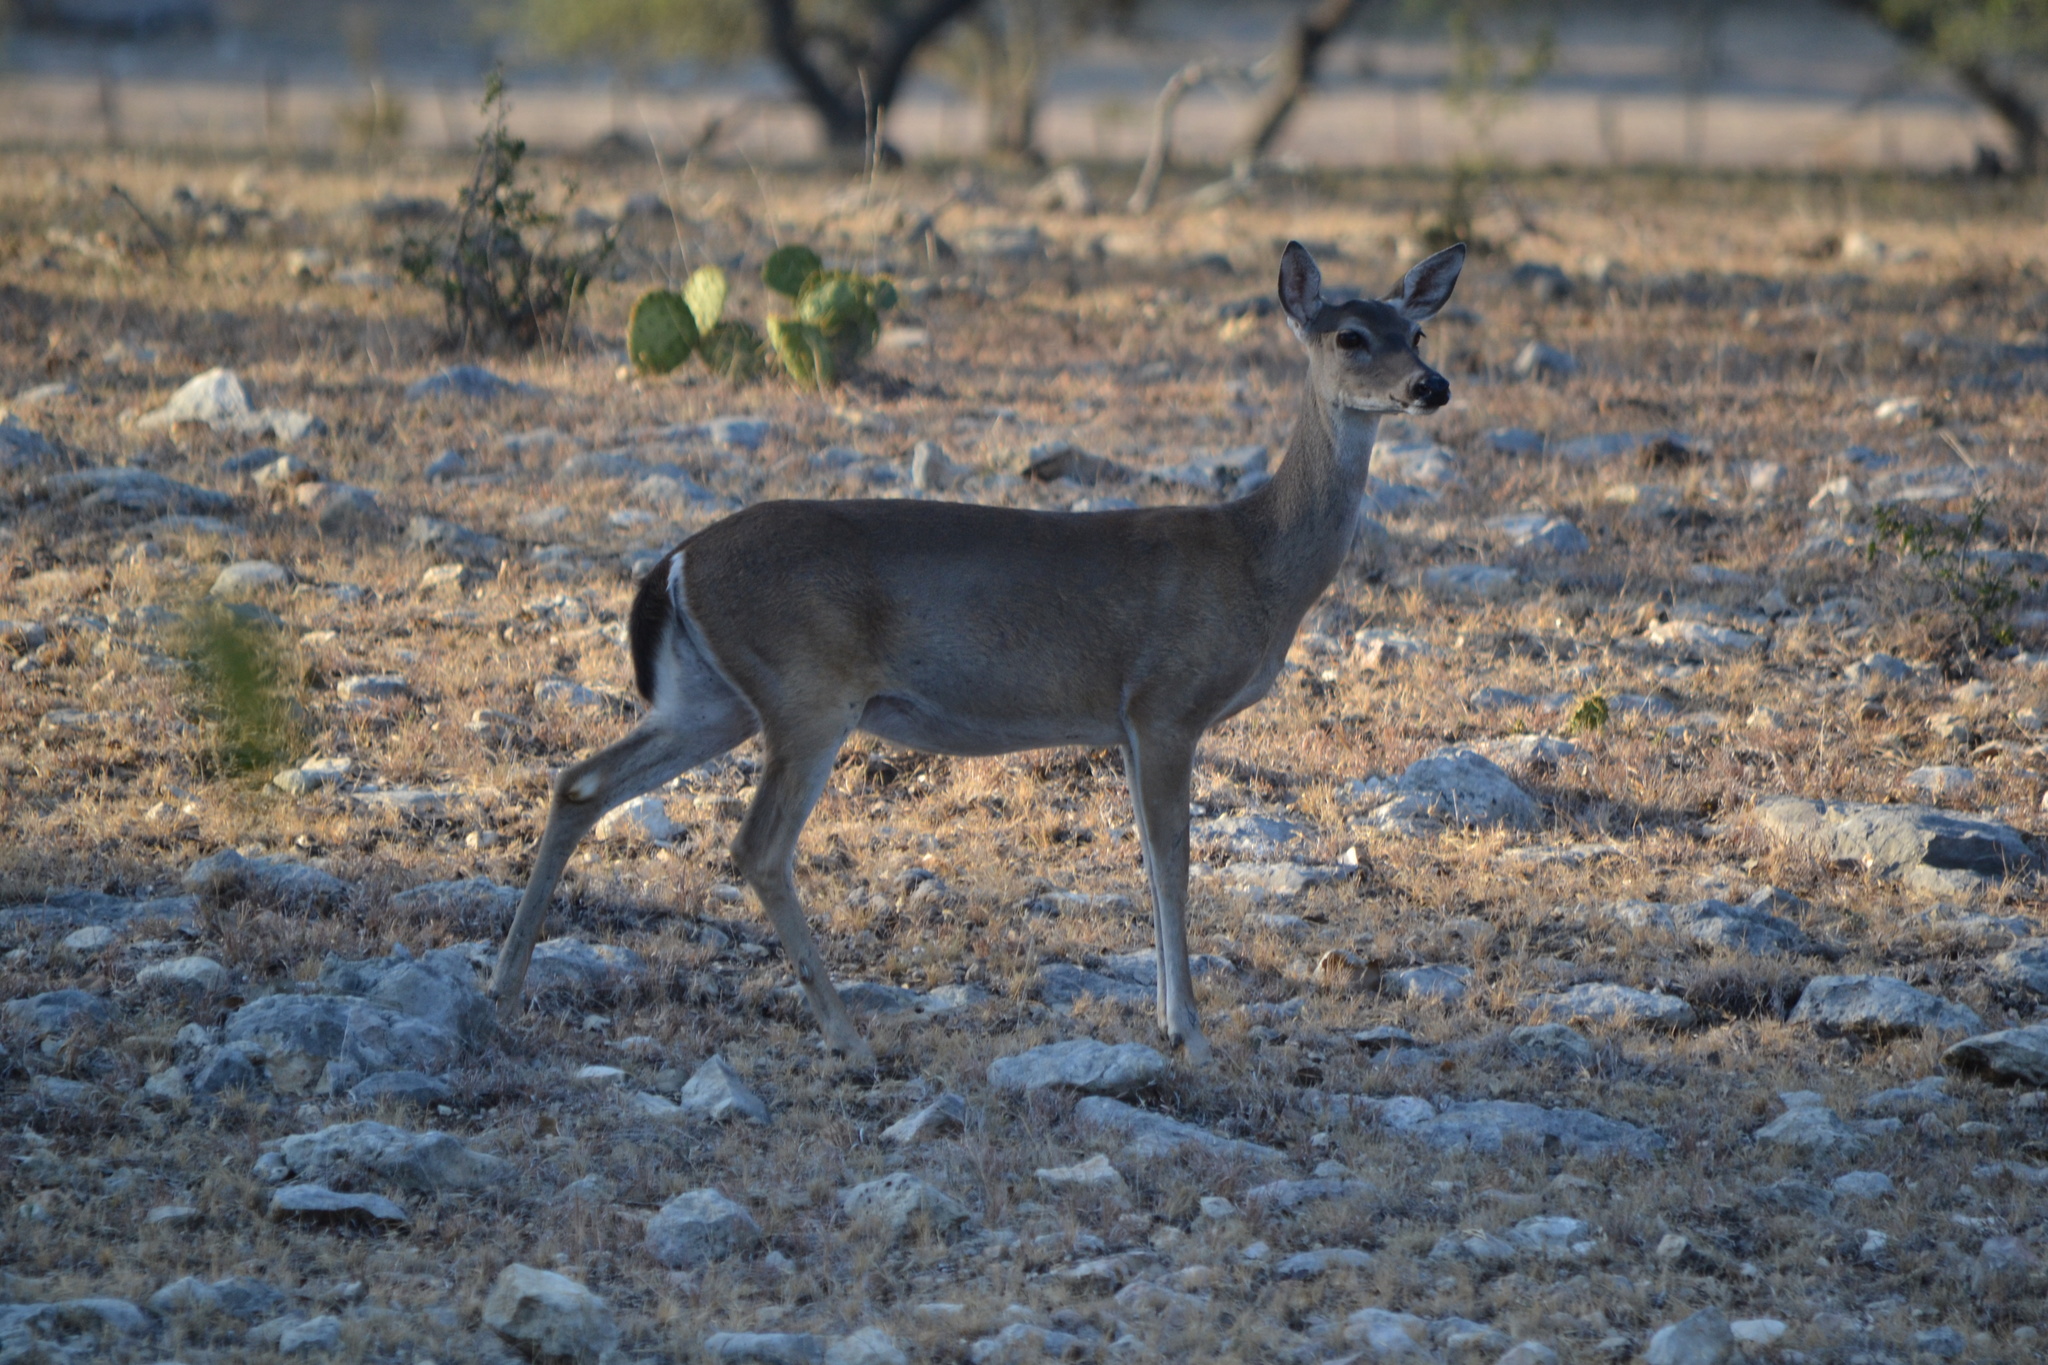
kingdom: Animalia
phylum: Chordata
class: Mammalia
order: Artiodactyla
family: Cervidae
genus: Odocoileus
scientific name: Odocoileus virginianus
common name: White-tailed deer
